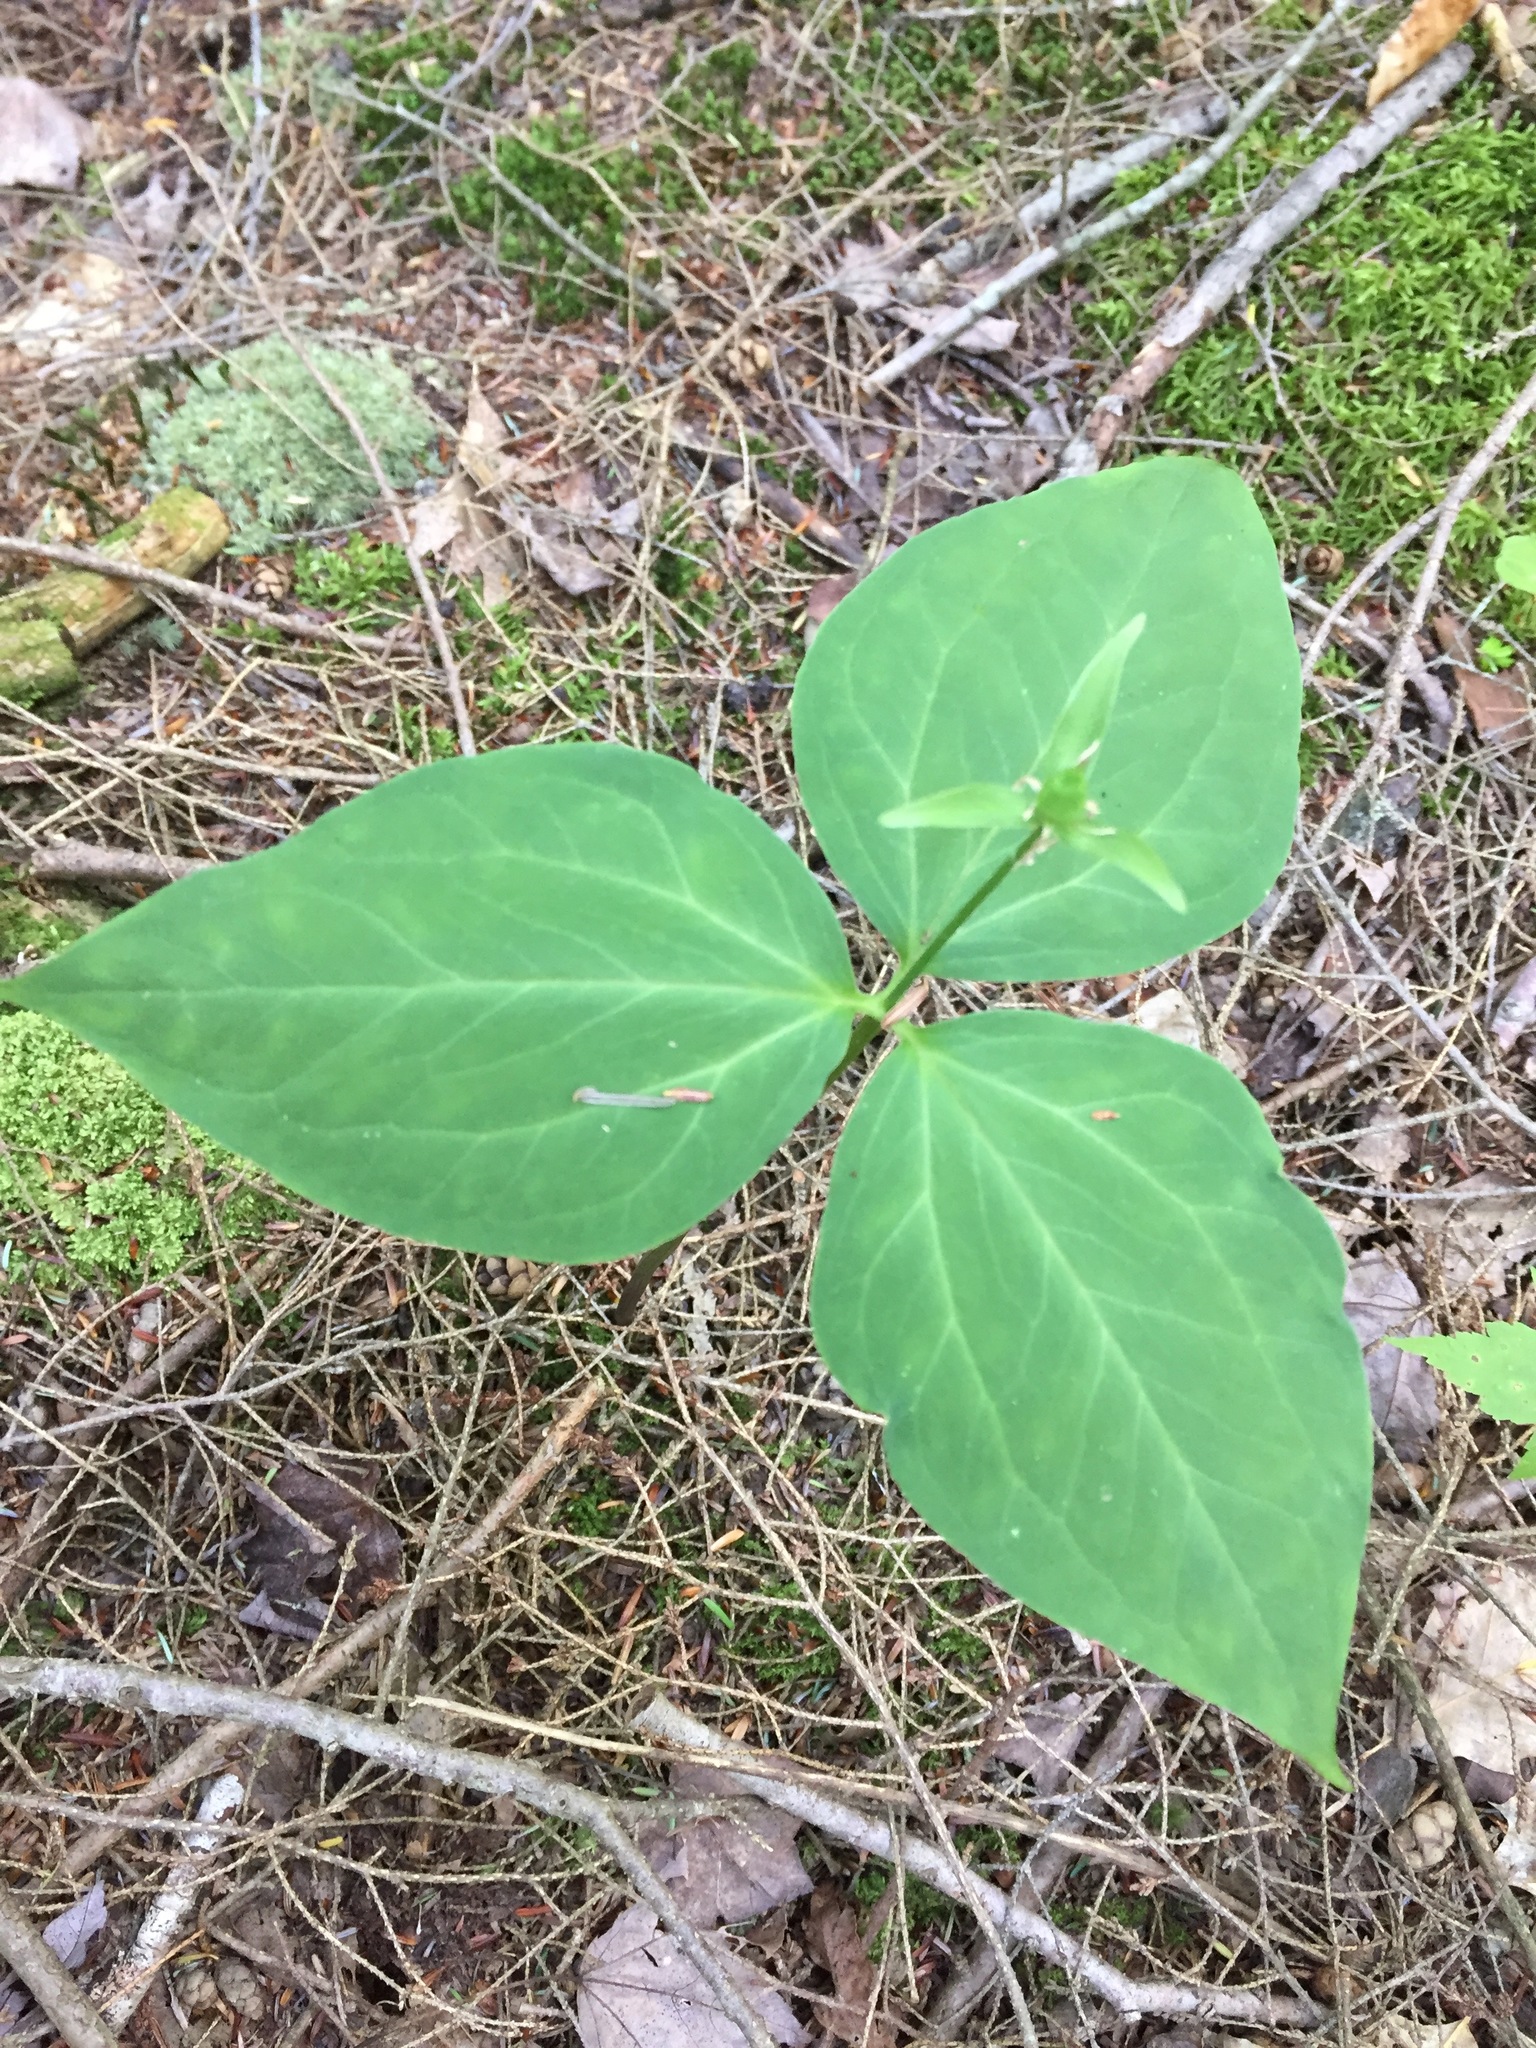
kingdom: Plantae
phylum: Tracheophyta
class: Liliopsida
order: Liliales
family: Melanthiaceae
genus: Trillium
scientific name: Trillium undulatum
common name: Paint trillium
